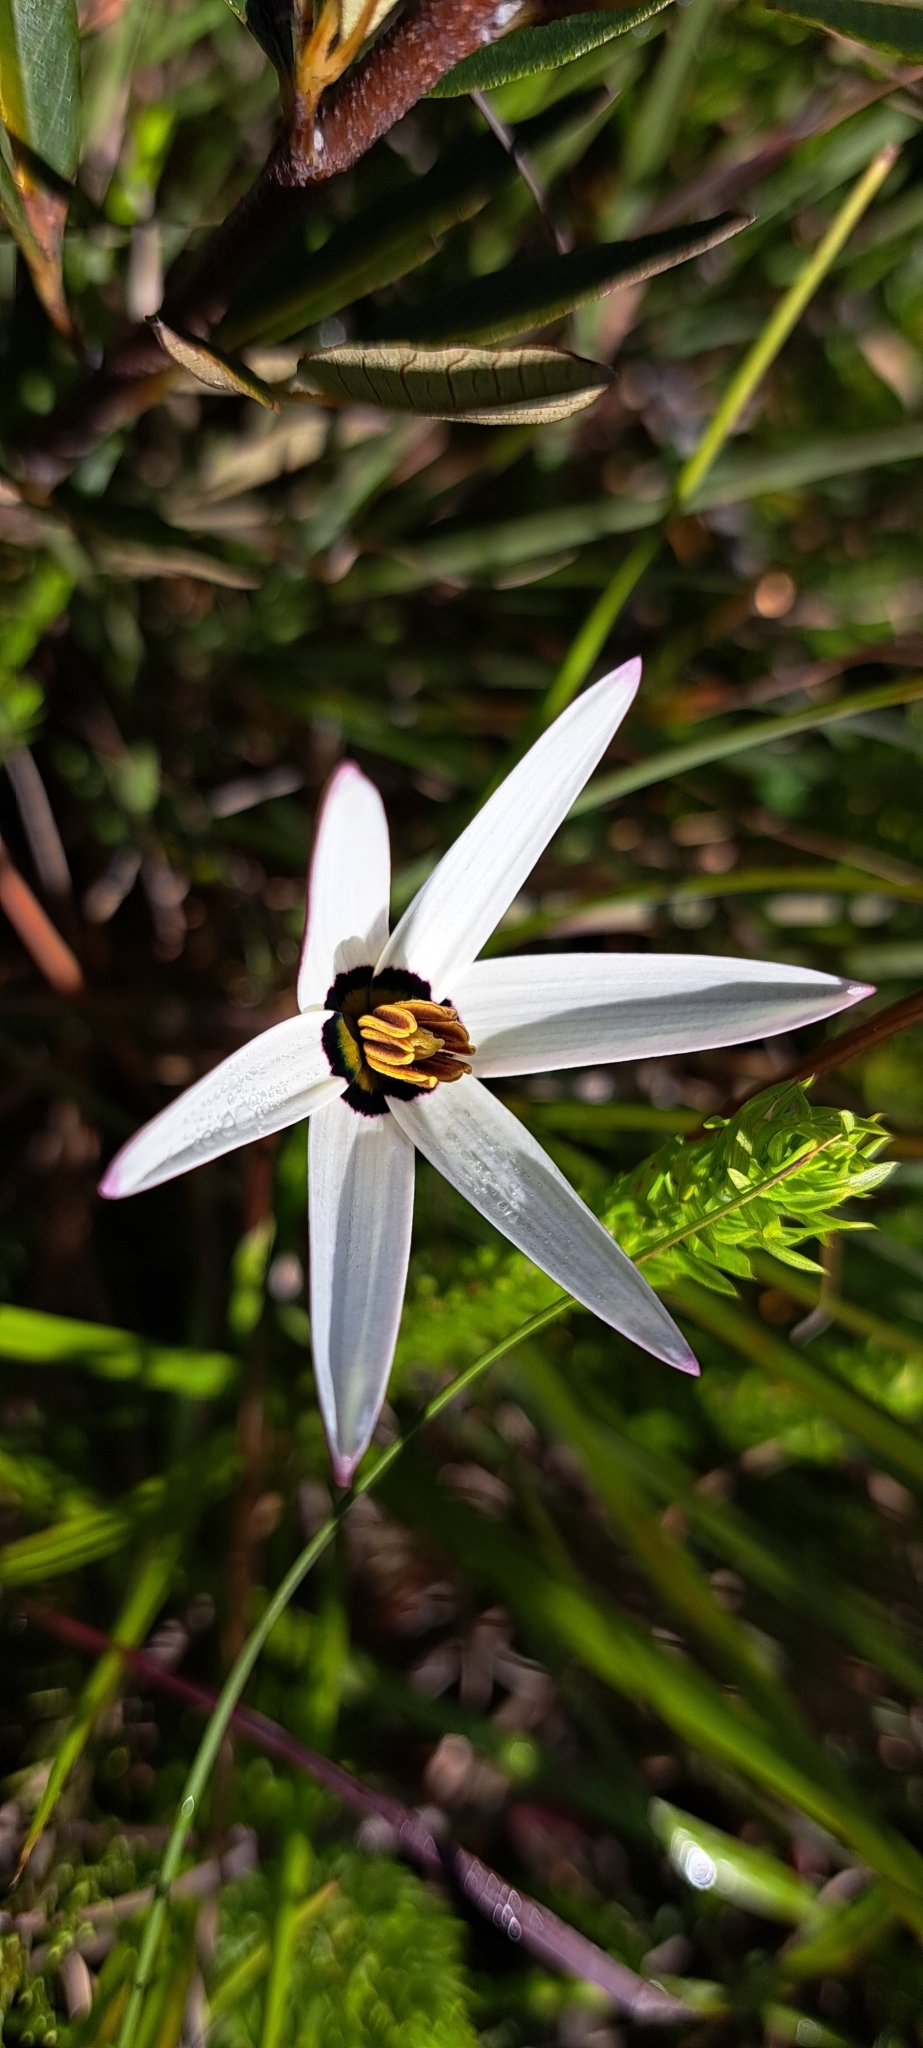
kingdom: Plantae
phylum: Tracheophyta
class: Liliopsida
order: Asparagales
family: Hypoxidaceae
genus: Pauridia
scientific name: Pauridia capensis
